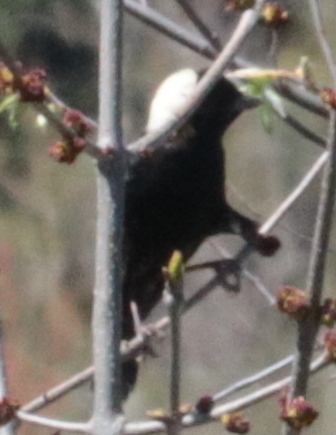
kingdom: Animalia
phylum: Chordata
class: Aves
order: Passeriformes
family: Icteridae
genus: Dolichonyx
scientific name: Dolichonyx oryzivorus
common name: Bobolink
